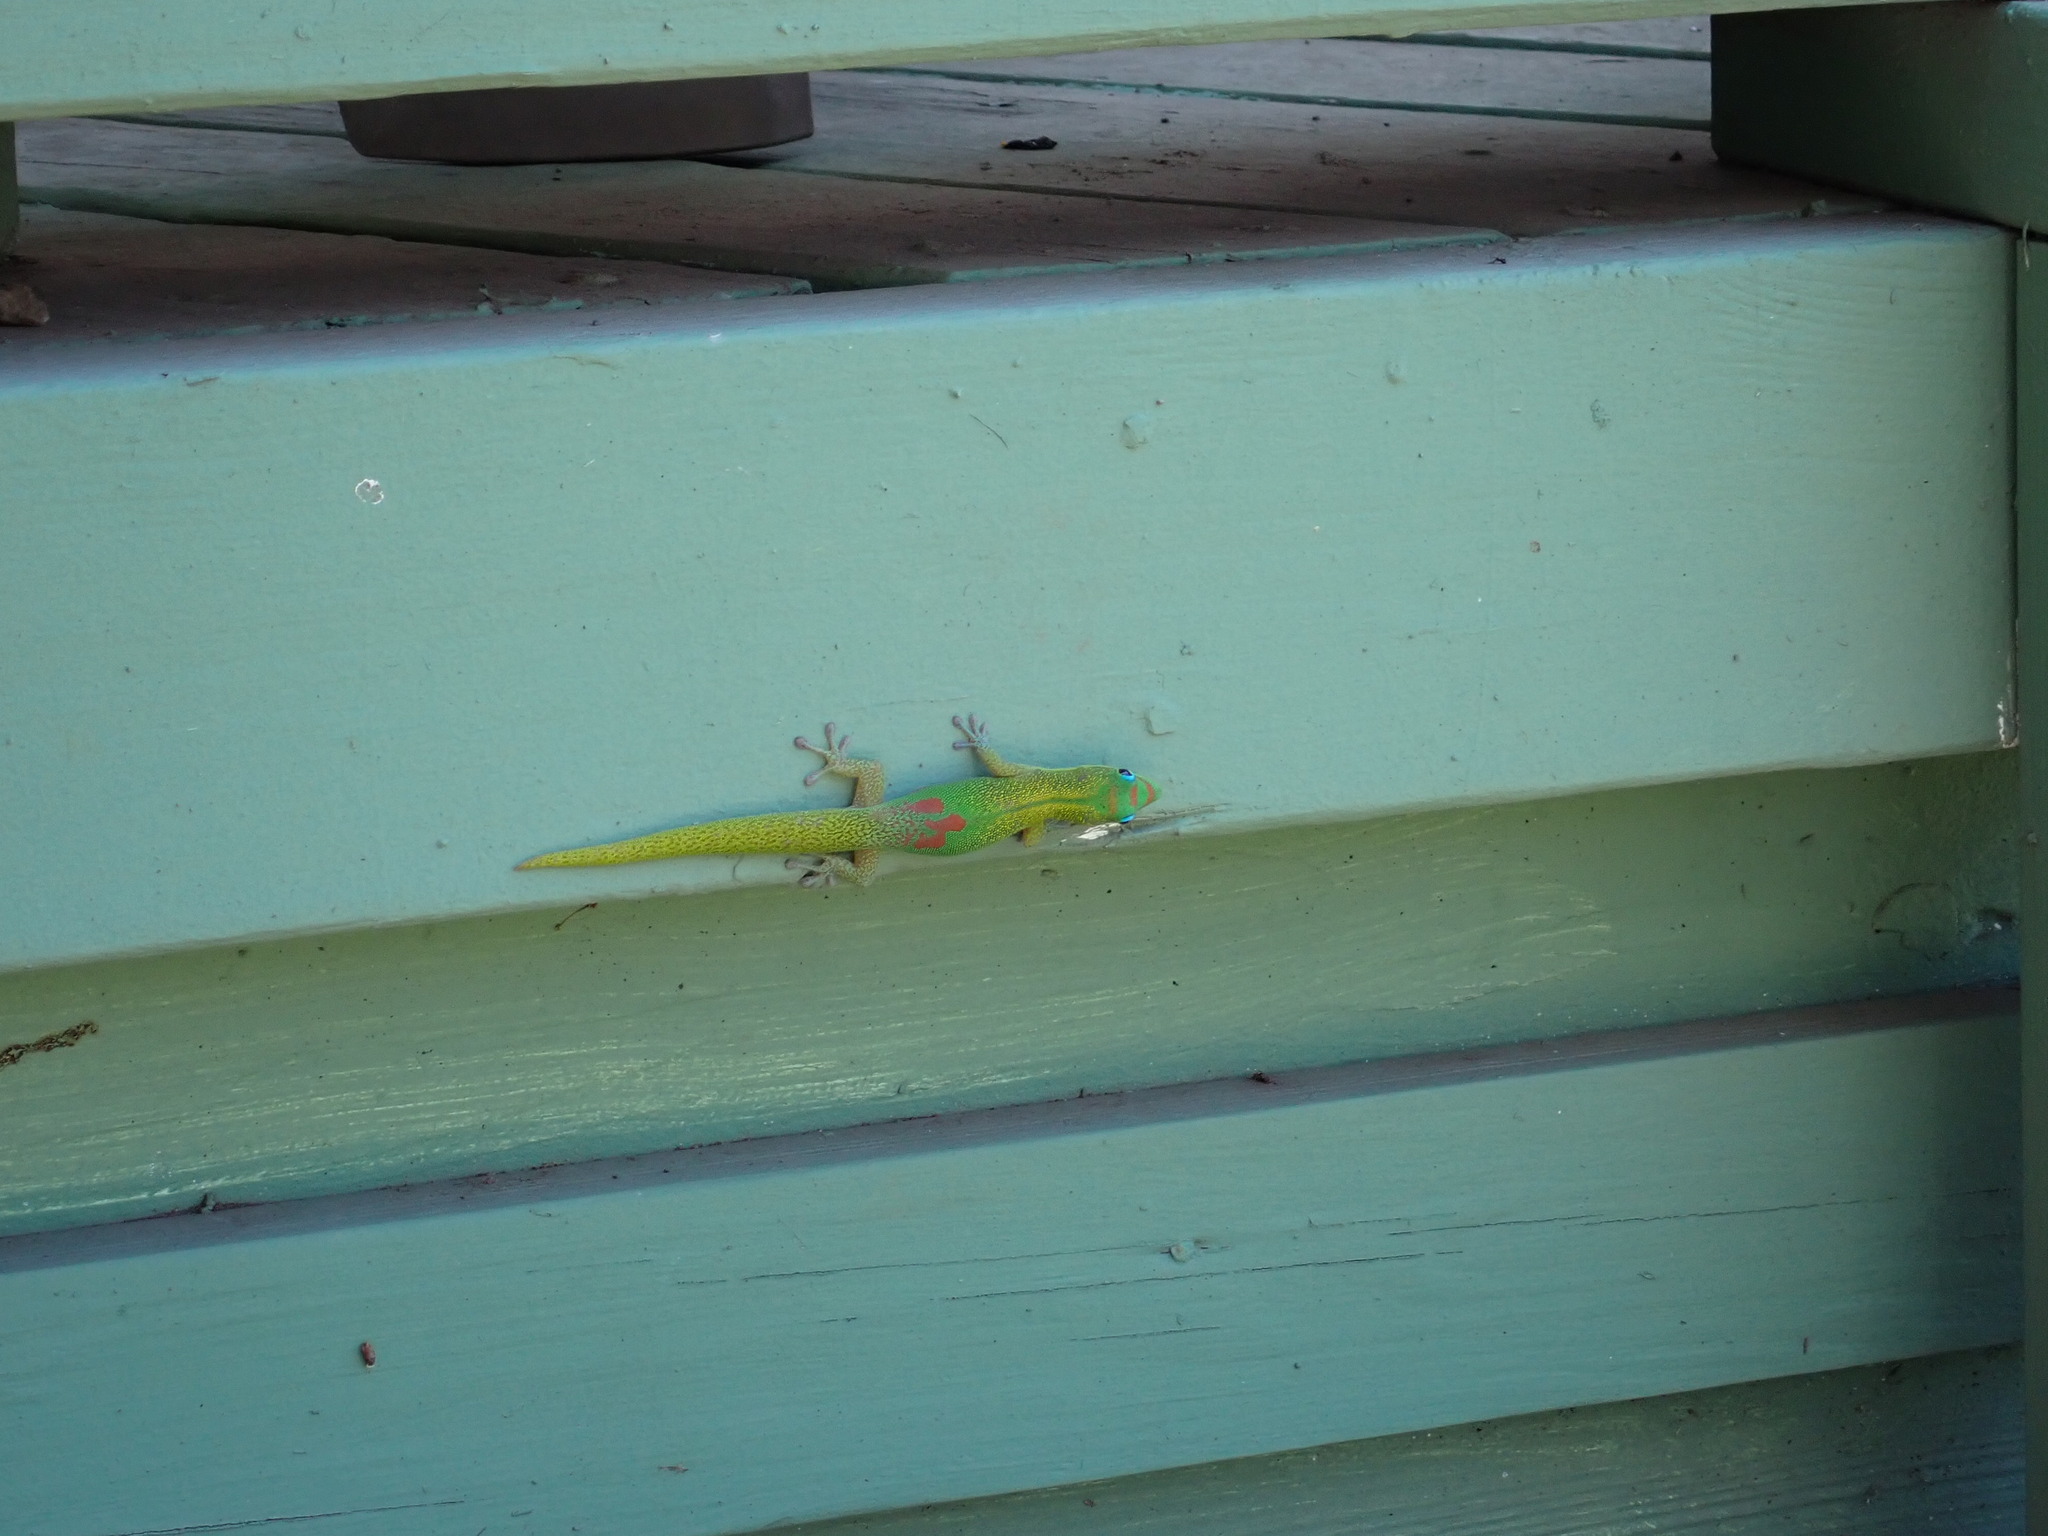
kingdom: Animalia
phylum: Chordata
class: Squamata
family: Gekkonidae
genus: Phelsuma
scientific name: Phelsuma laticauda
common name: Gold dust day gecko
